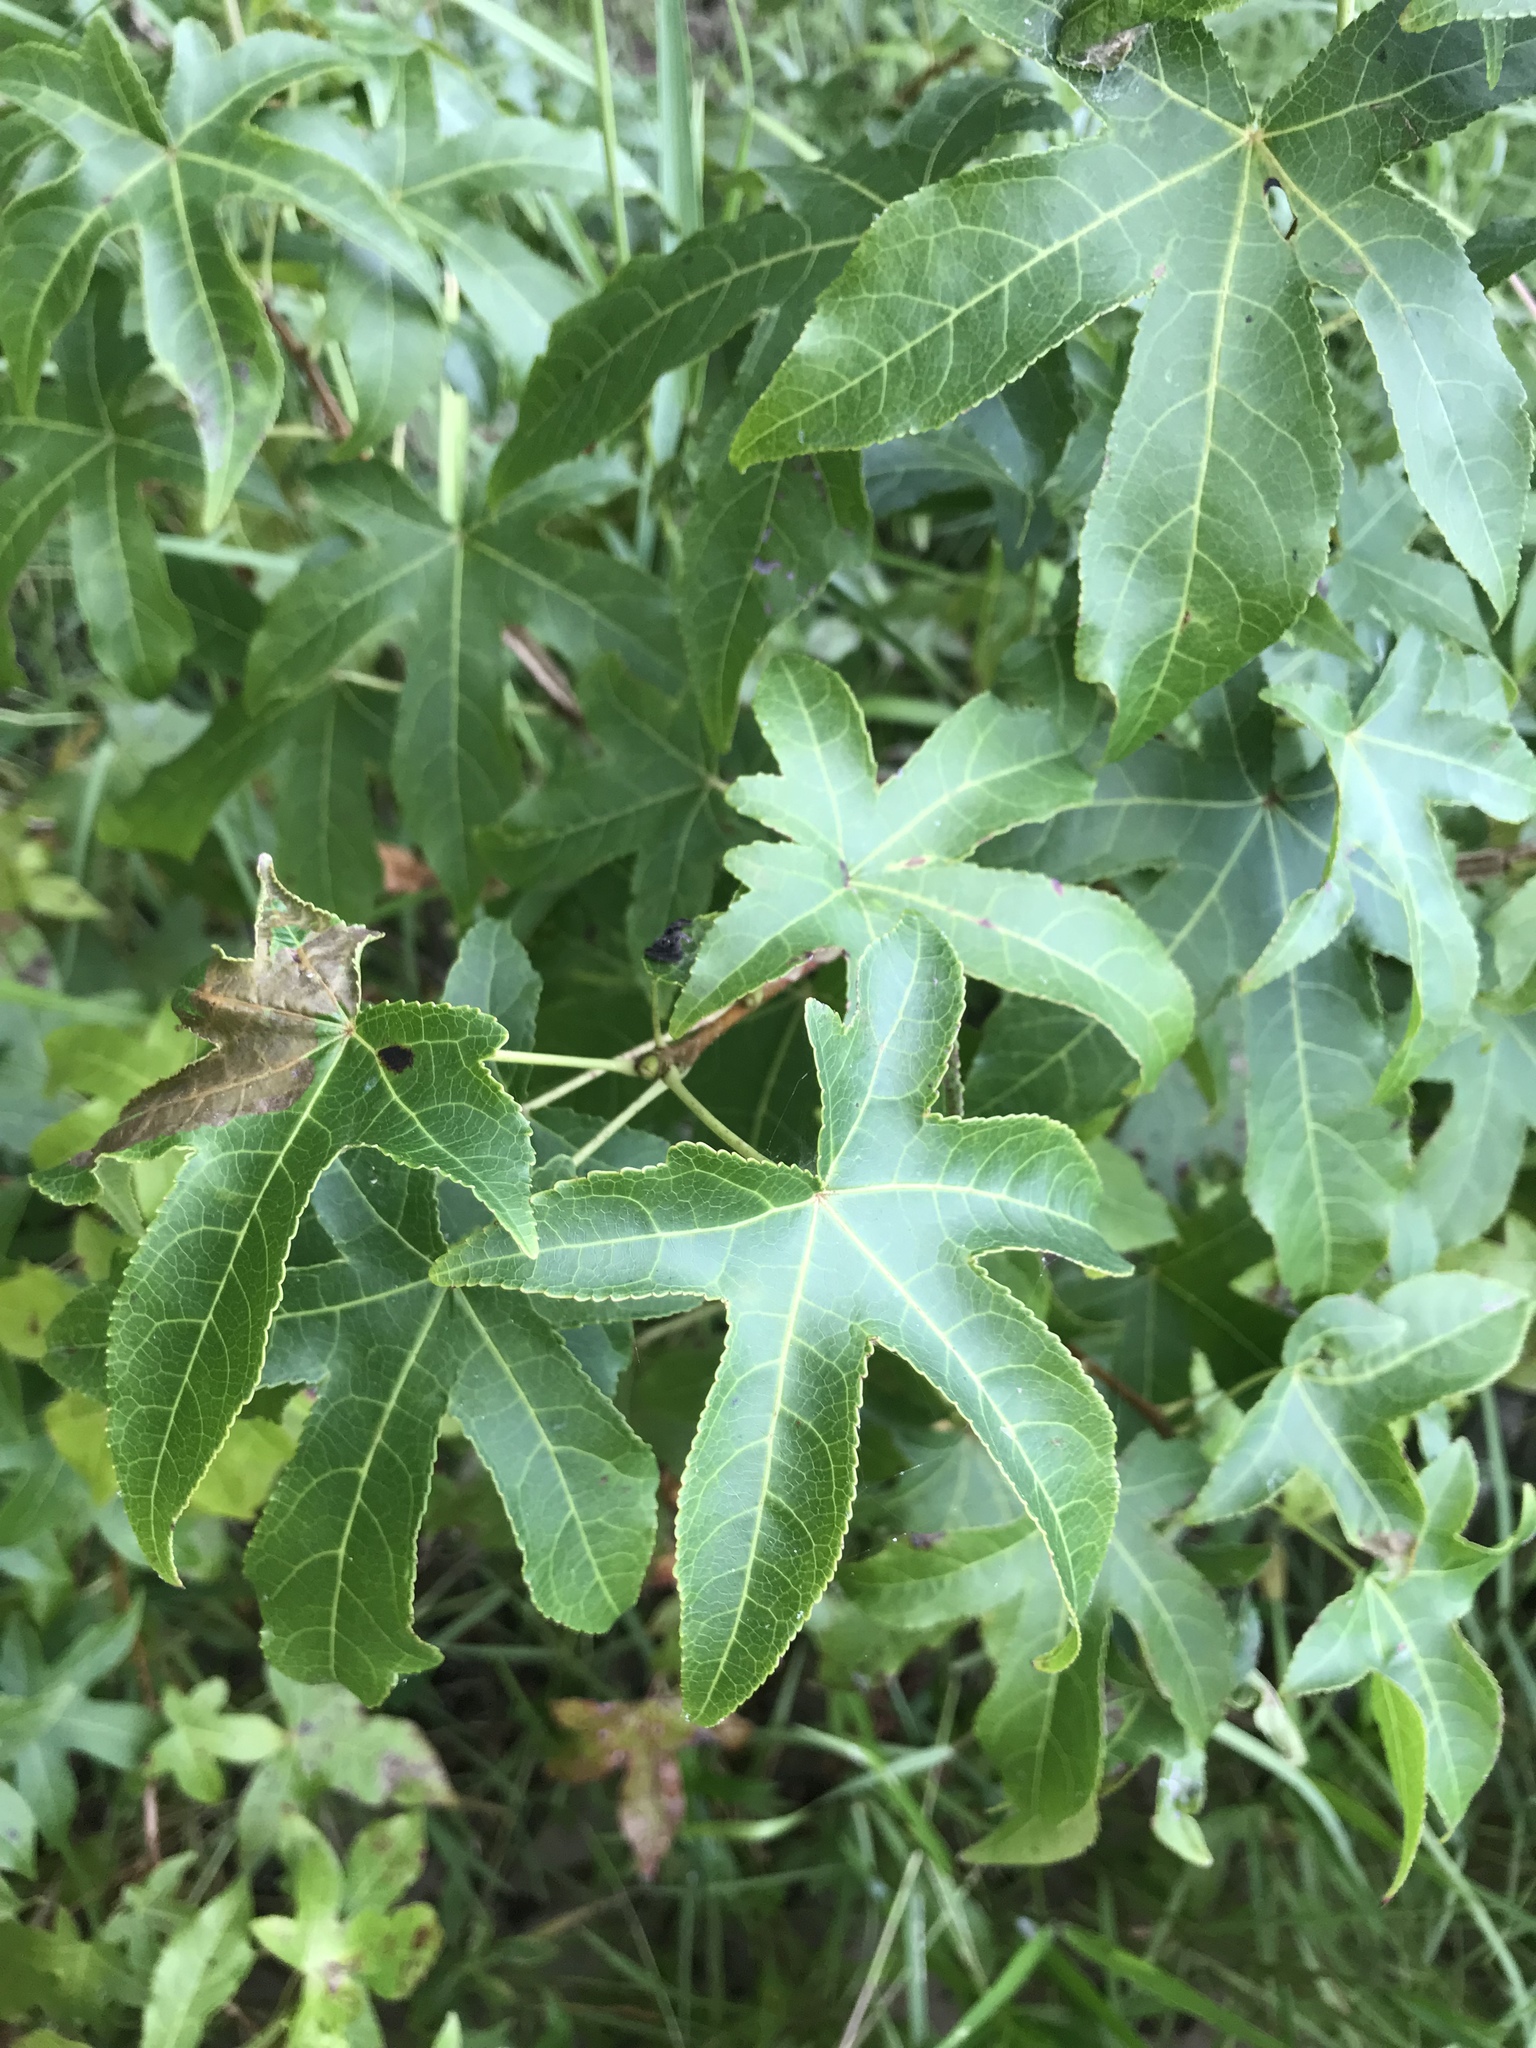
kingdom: Plantae
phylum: Tracheophyta
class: Magnoliopsida
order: Saxifragales
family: Altingiaceae
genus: Liquidambar
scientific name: Liquidambar styraciflua
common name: Sweet gum
